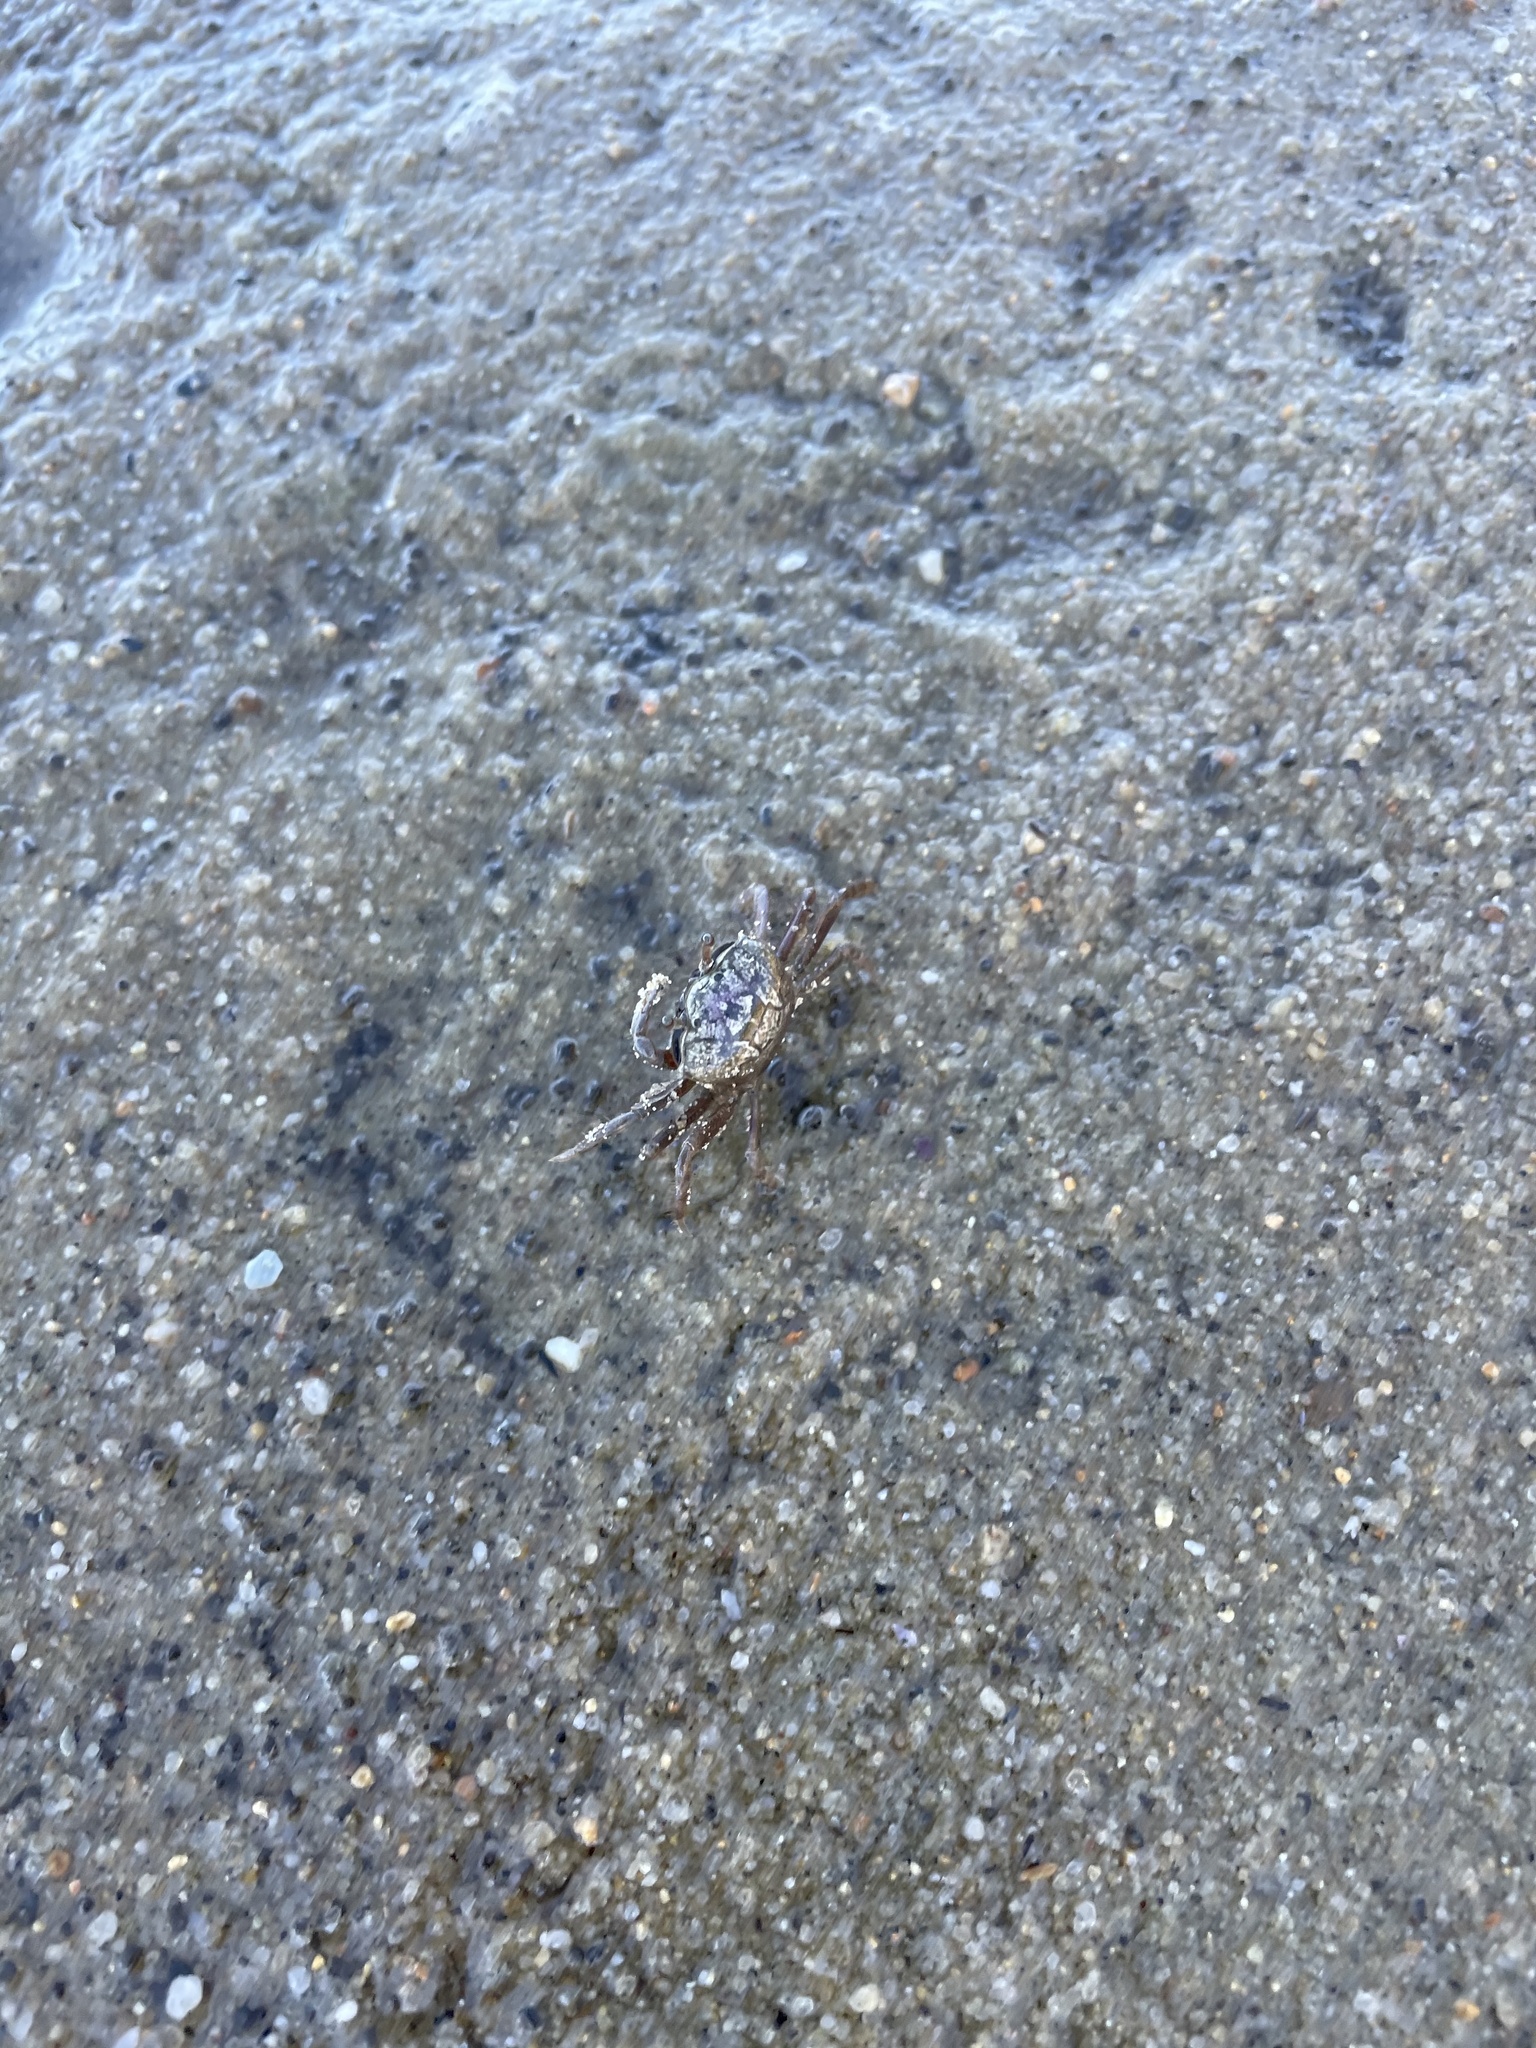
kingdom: Animalia
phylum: Arthropoda
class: Malacostraca
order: Decapoda
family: Ocypodidae
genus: Leptuca
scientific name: Leptuca pugilator
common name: Atlantic sand fiddler crab
